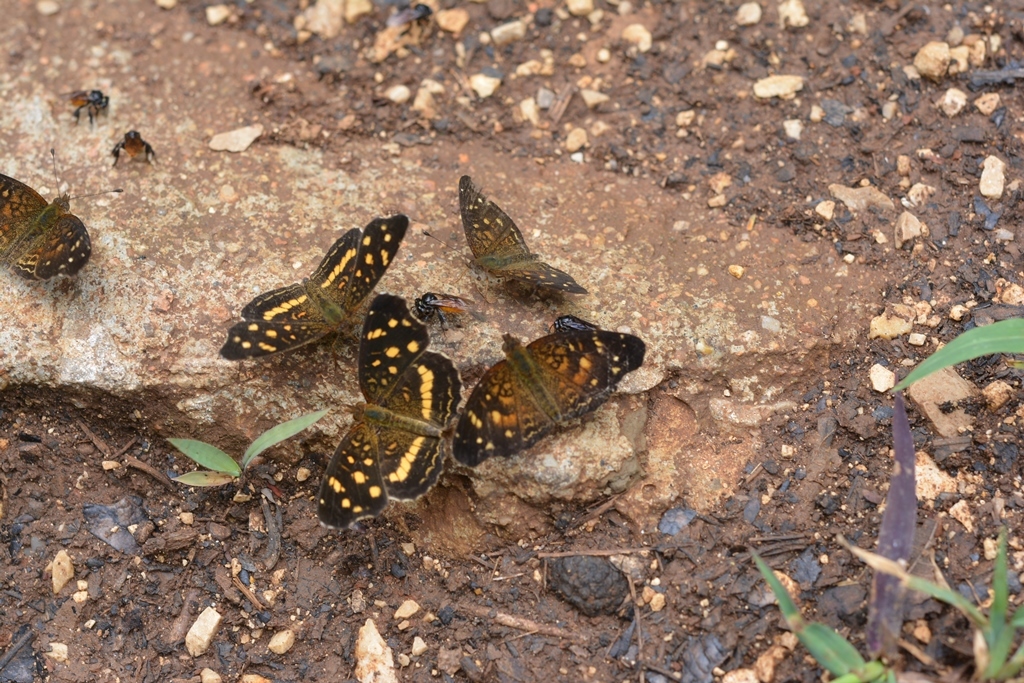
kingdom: Animalia
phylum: Arthropoda
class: Insecta
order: Lepidoptera
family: Nymphalidae
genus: Anthanassa
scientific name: Anthanassa atronia
